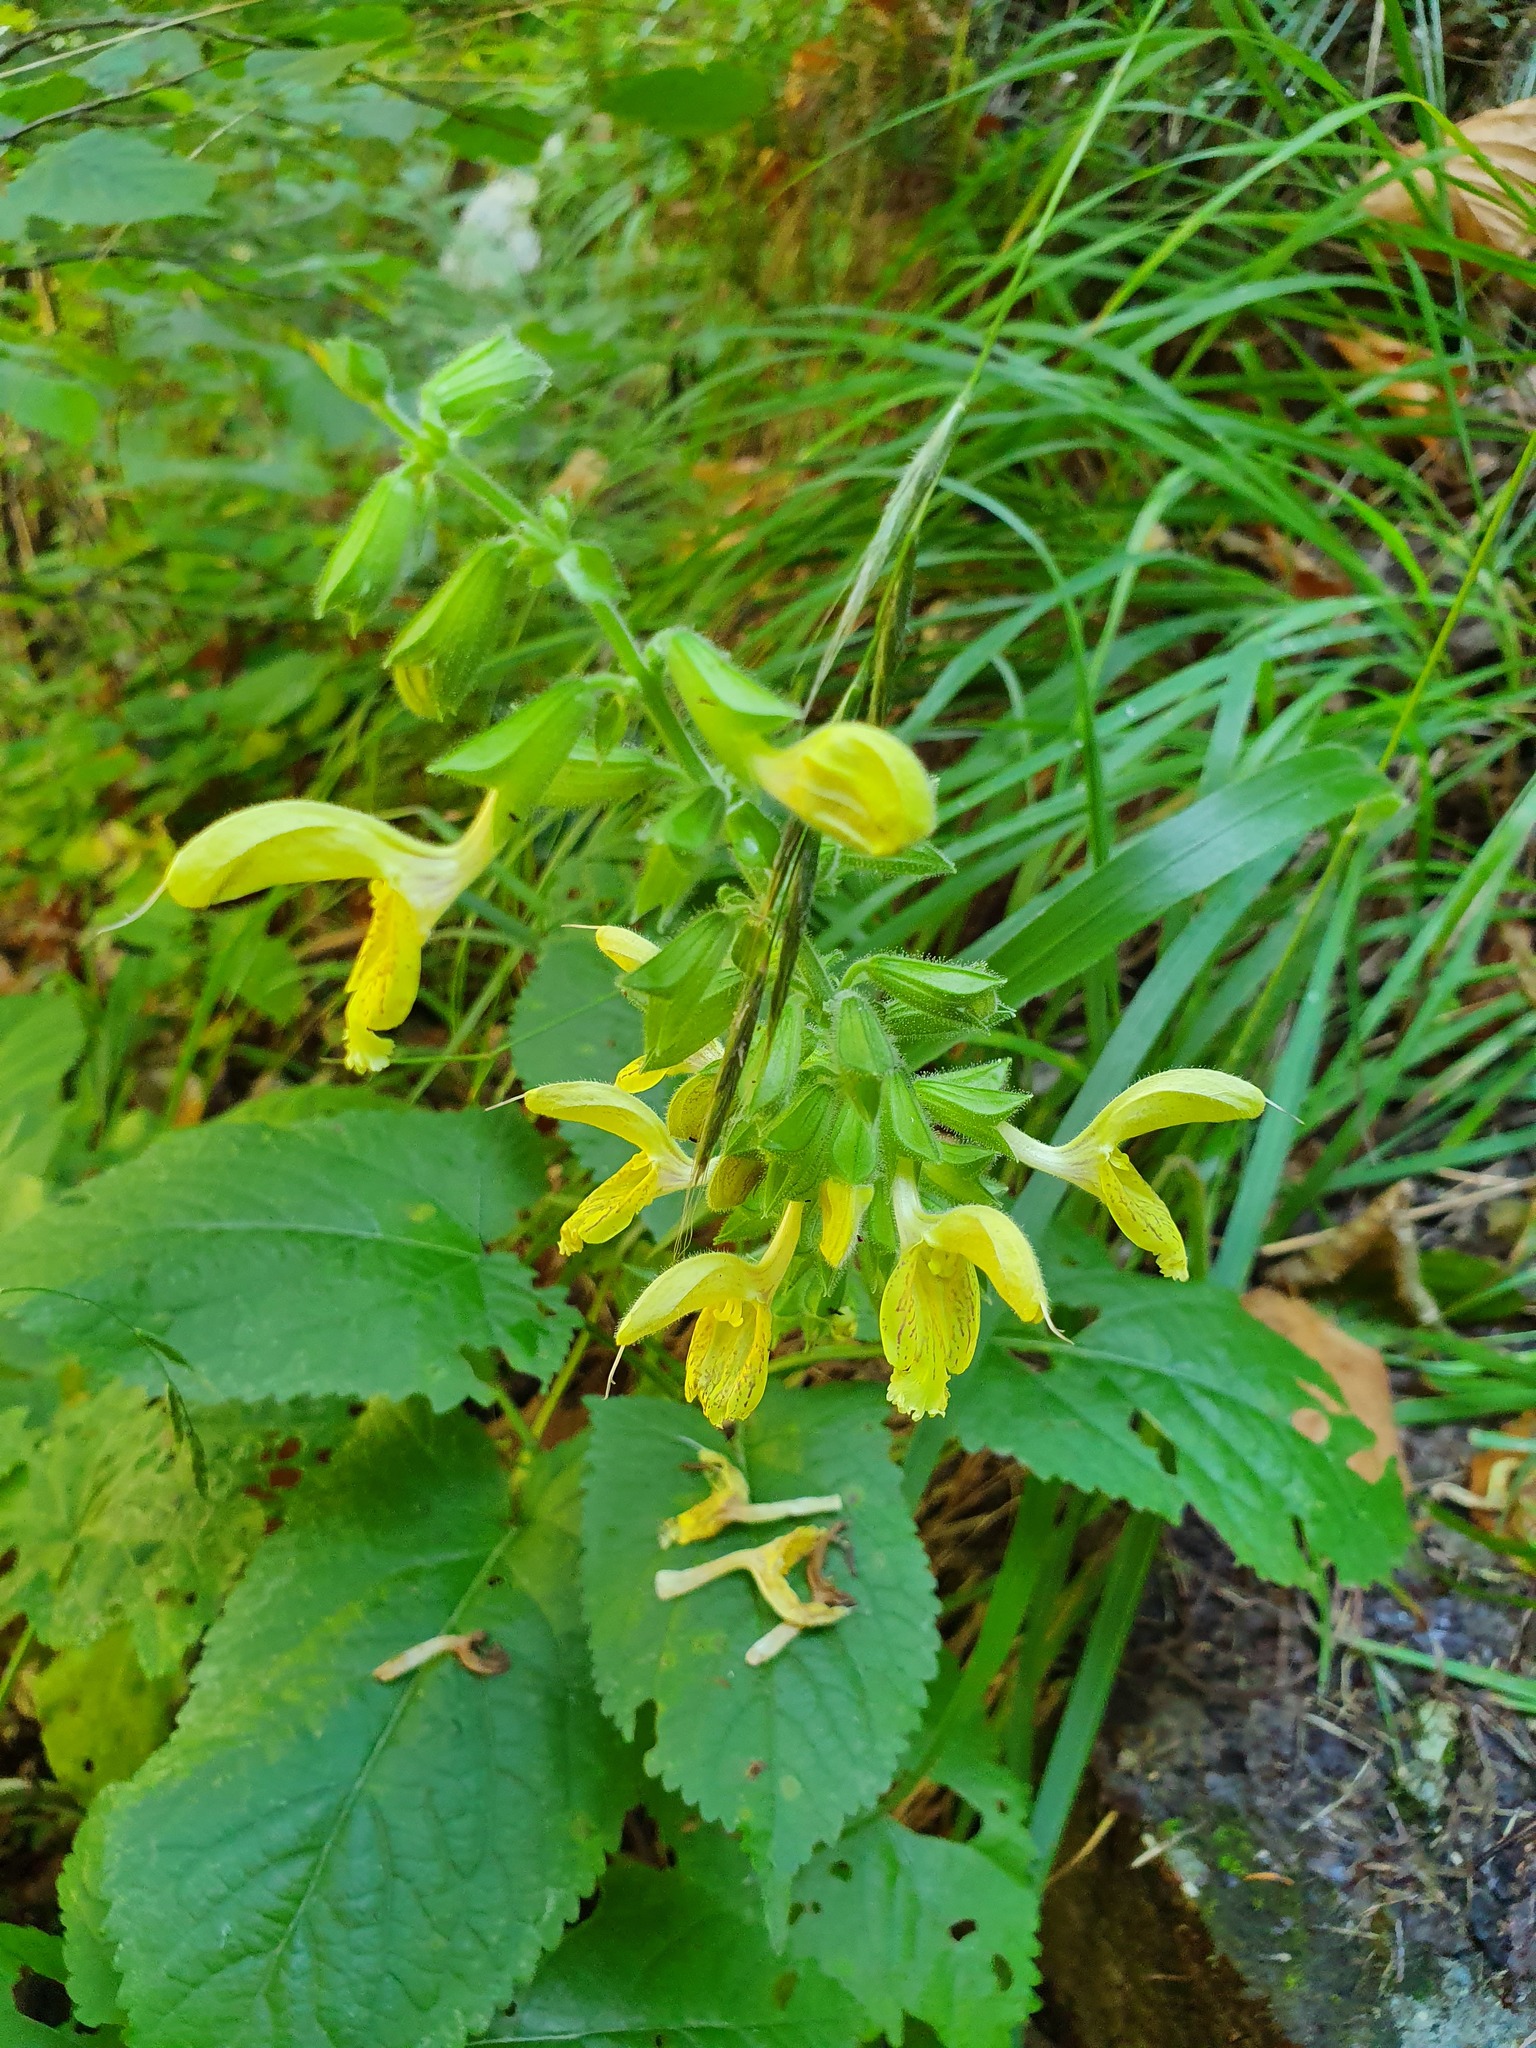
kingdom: Plantae
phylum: Tracheophyta
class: Magnoliopsida
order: Lamiales
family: Lamiaceae
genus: Salvia
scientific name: Salvia glutinosa
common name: Sticky clary
